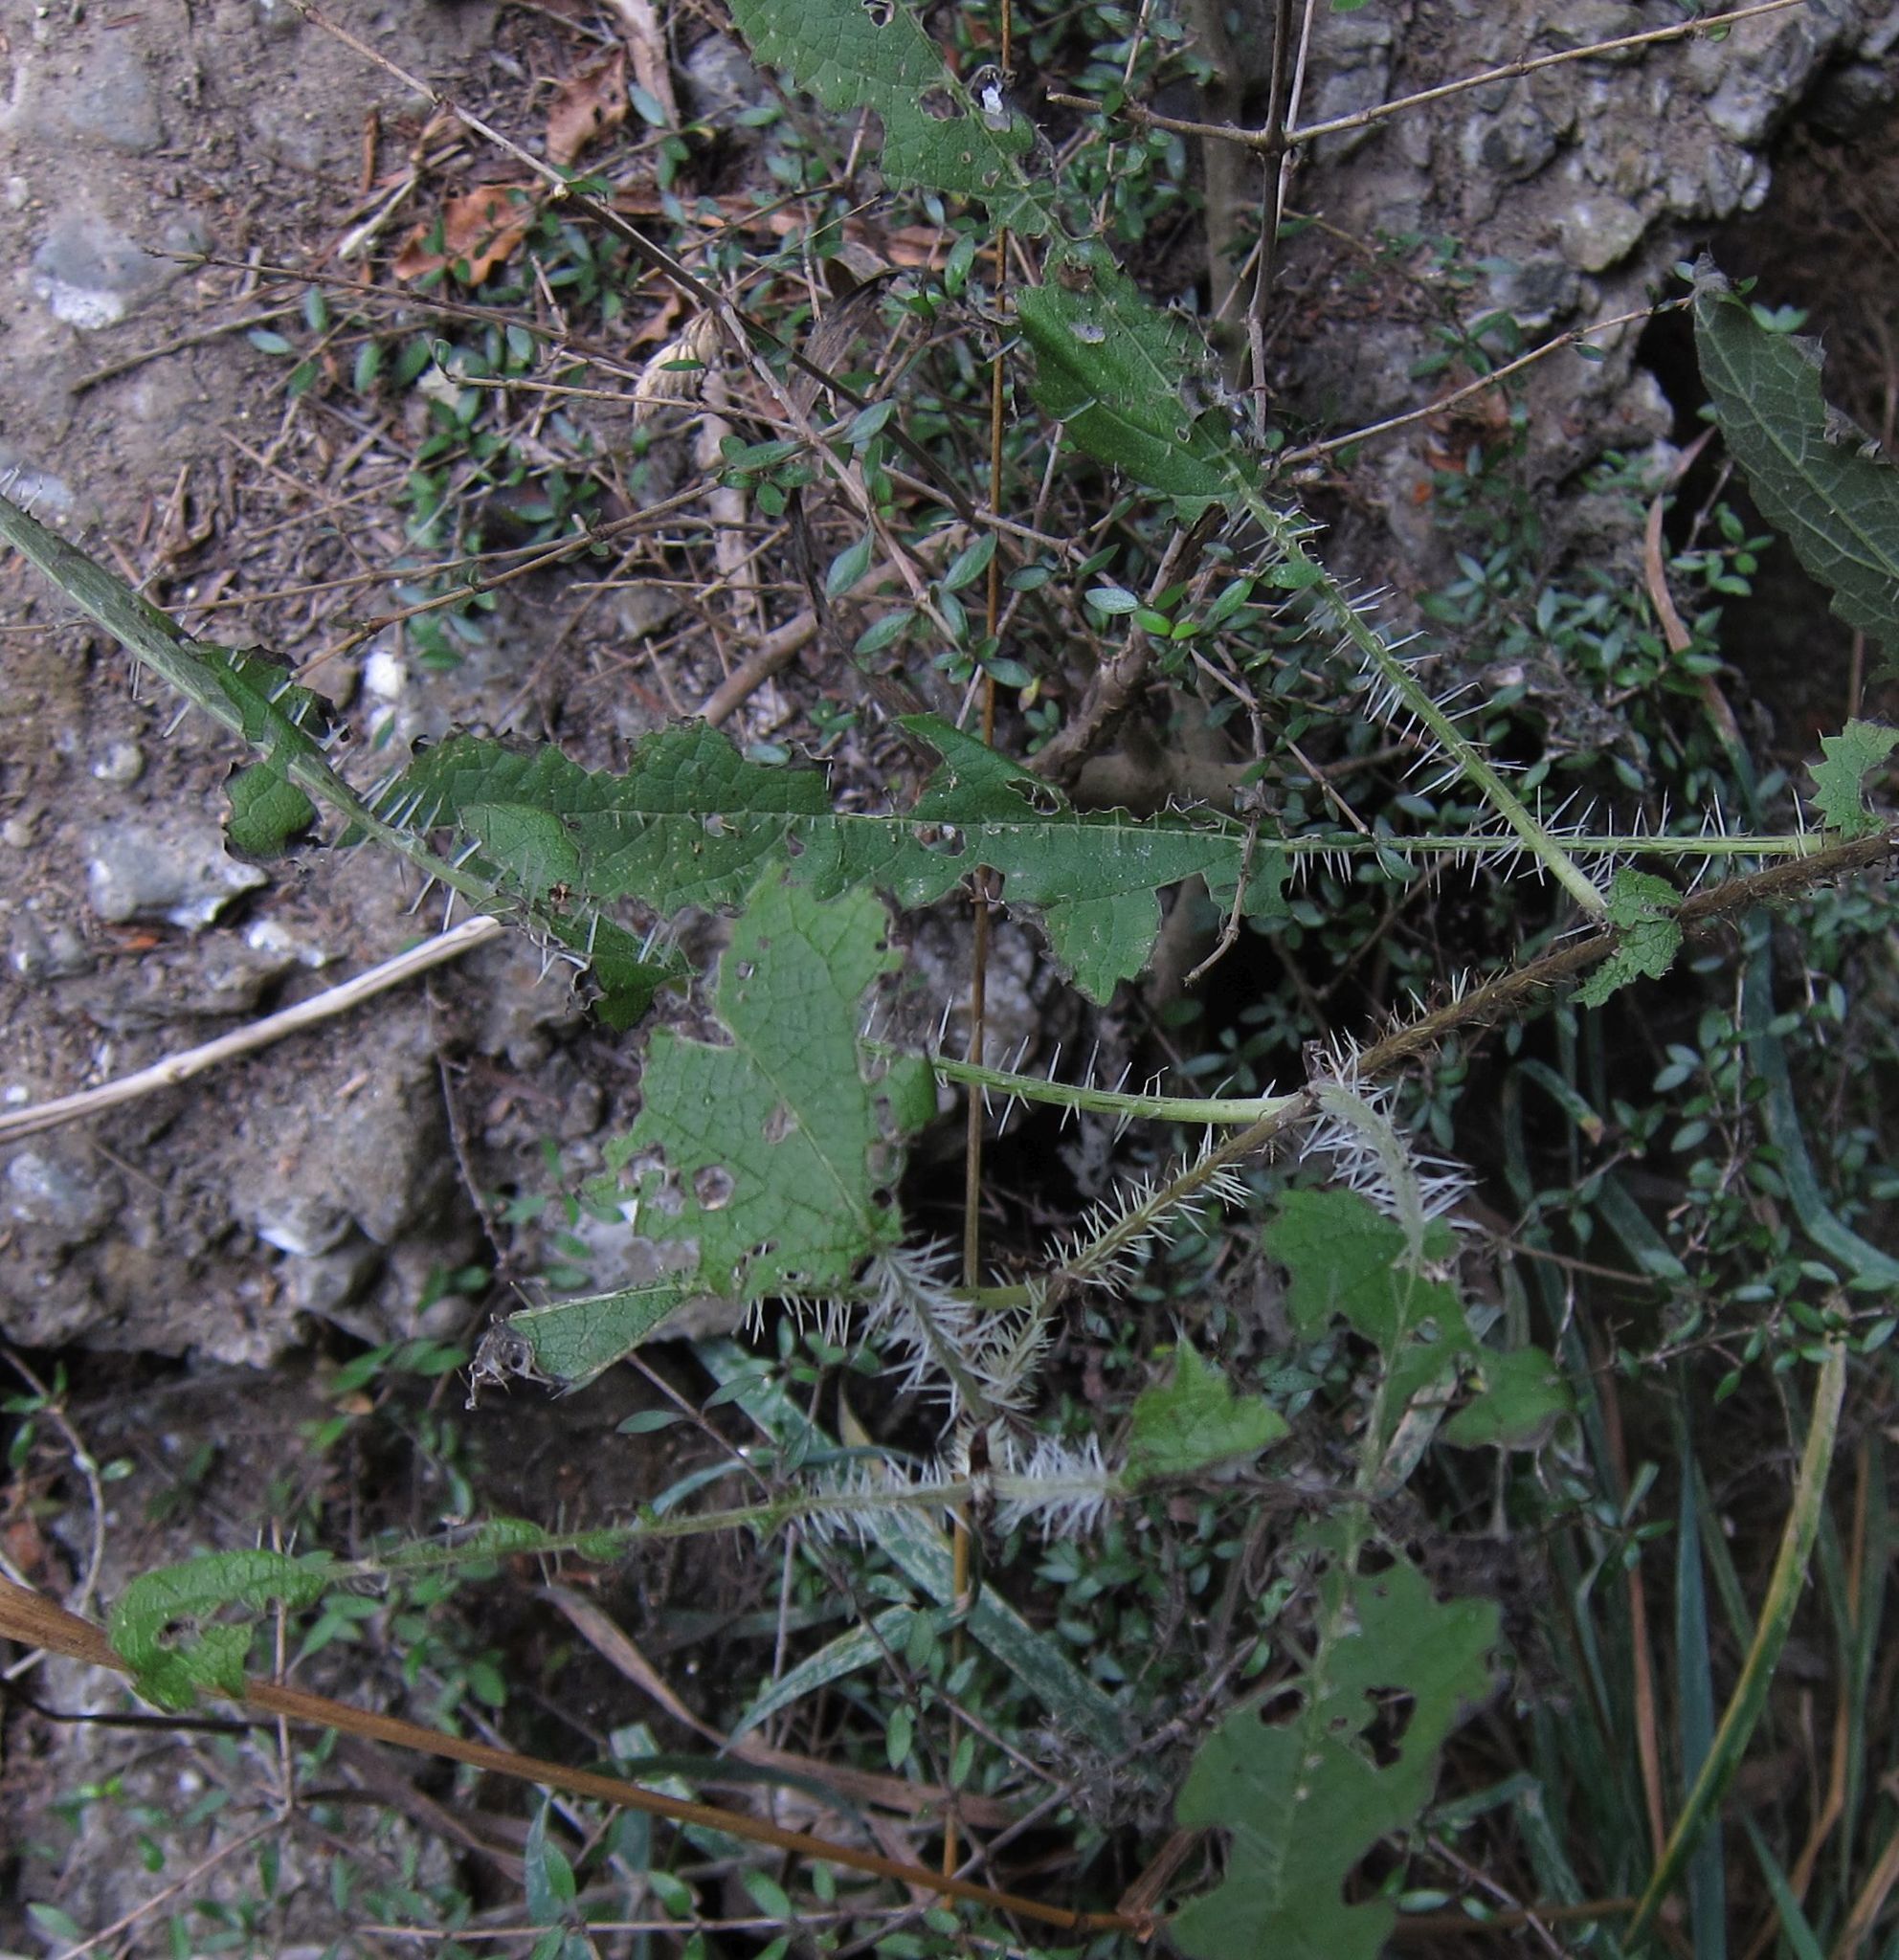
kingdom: Plantae
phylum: Tracheophyta
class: Magnoliopsida
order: Rosales
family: Urticaceae
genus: Urtica
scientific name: Urtica ferox
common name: Tree nettle
